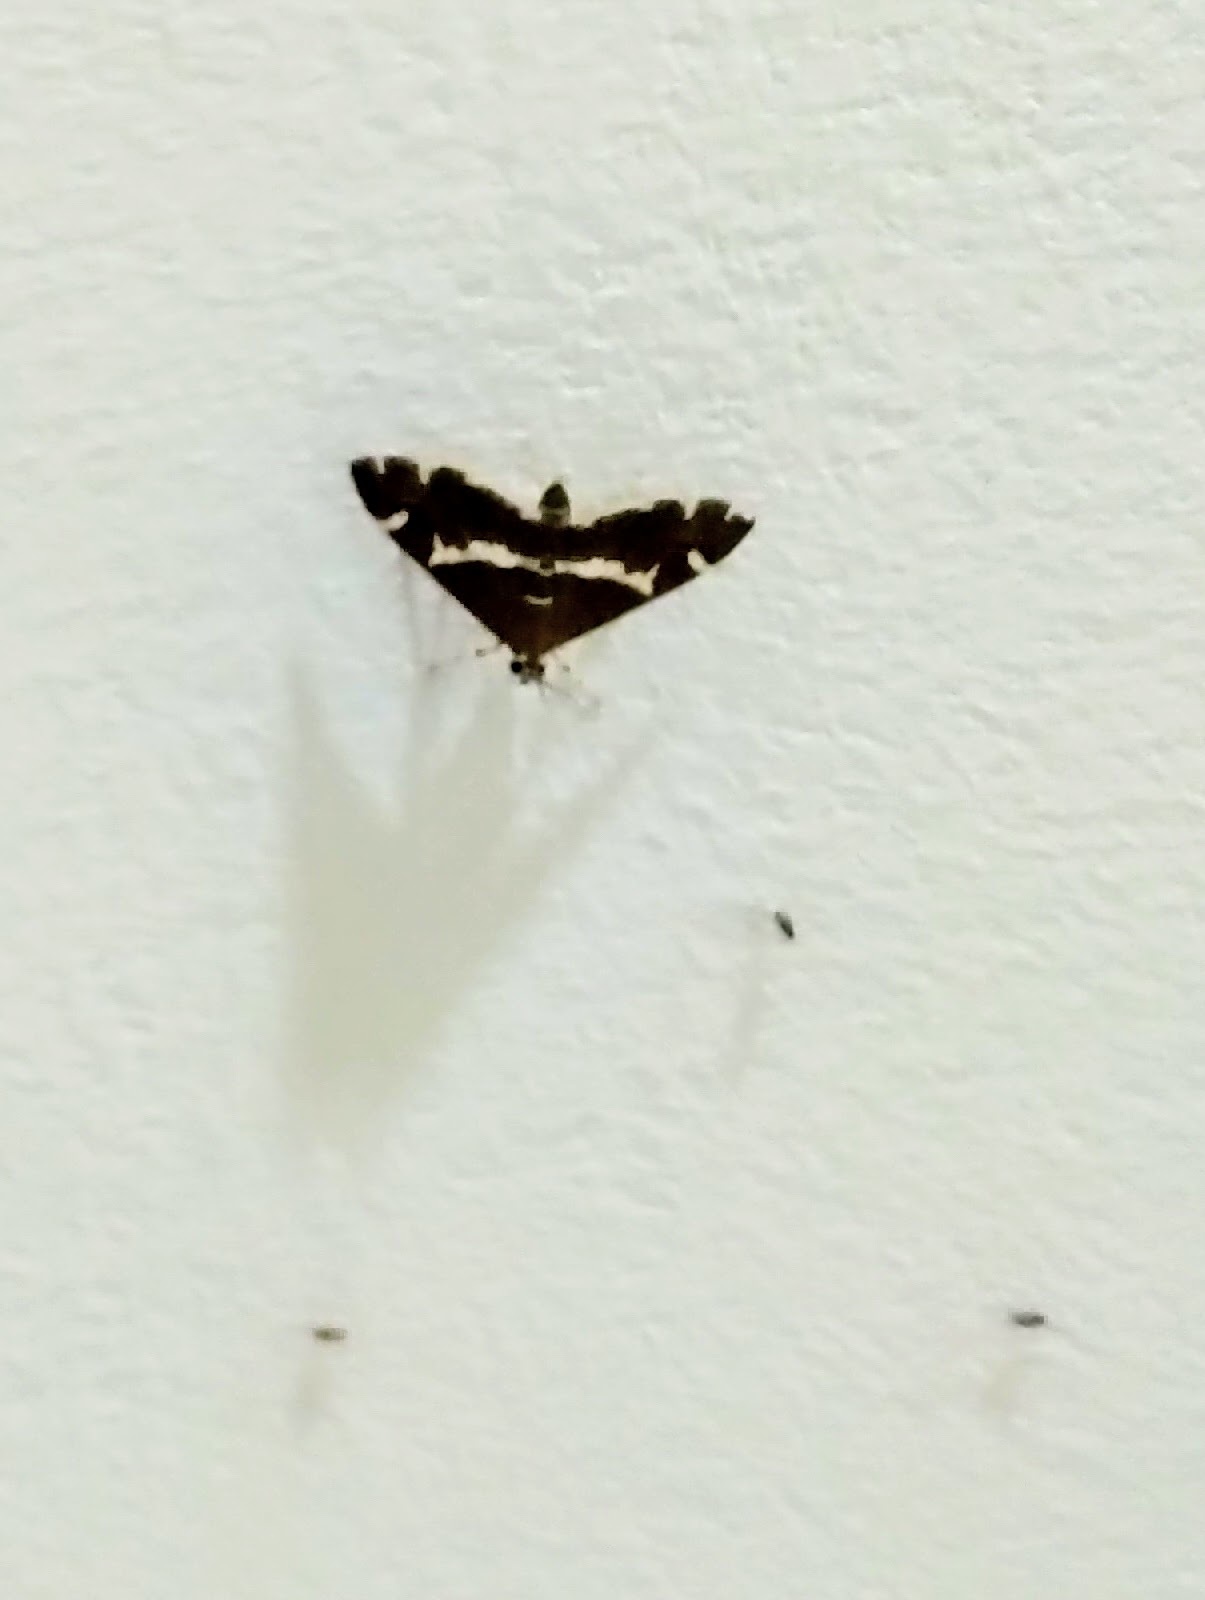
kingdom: Animalia
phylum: Arthropoda
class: Insecta
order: Lepidoptera
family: Crambidae
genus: Spoladea
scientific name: Spoladea recurvalis
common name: Beet webworm moth
